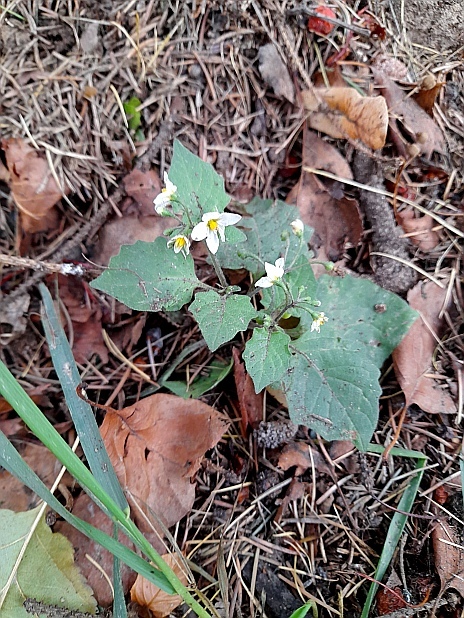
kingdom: Plantae
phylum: Tracheophyta
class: Magnoliopsida
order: Solanales
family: Solanaceae
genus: Solanum
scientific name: Solanum nigrum
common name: Black nightshade
